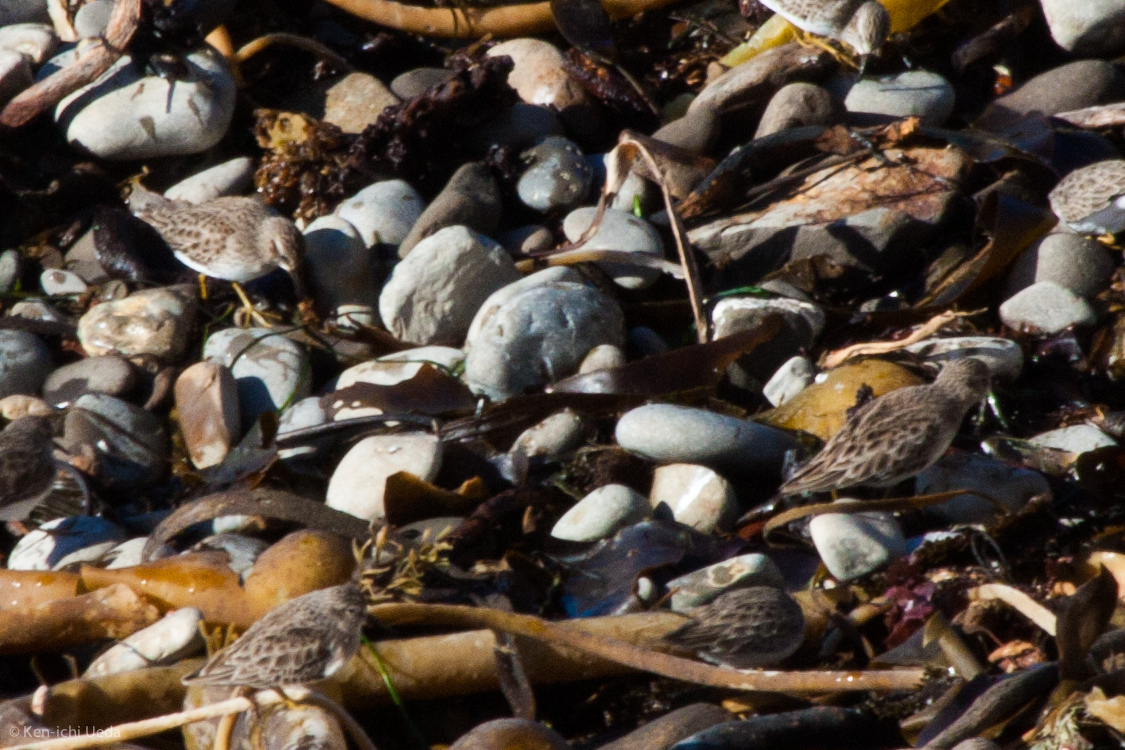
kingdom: Animalia
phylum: Chordata
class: Aves
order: Charadriiformes
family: Scolopacidae
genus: Calidris
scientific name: Calidris minutilla
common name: Least sandpiper
